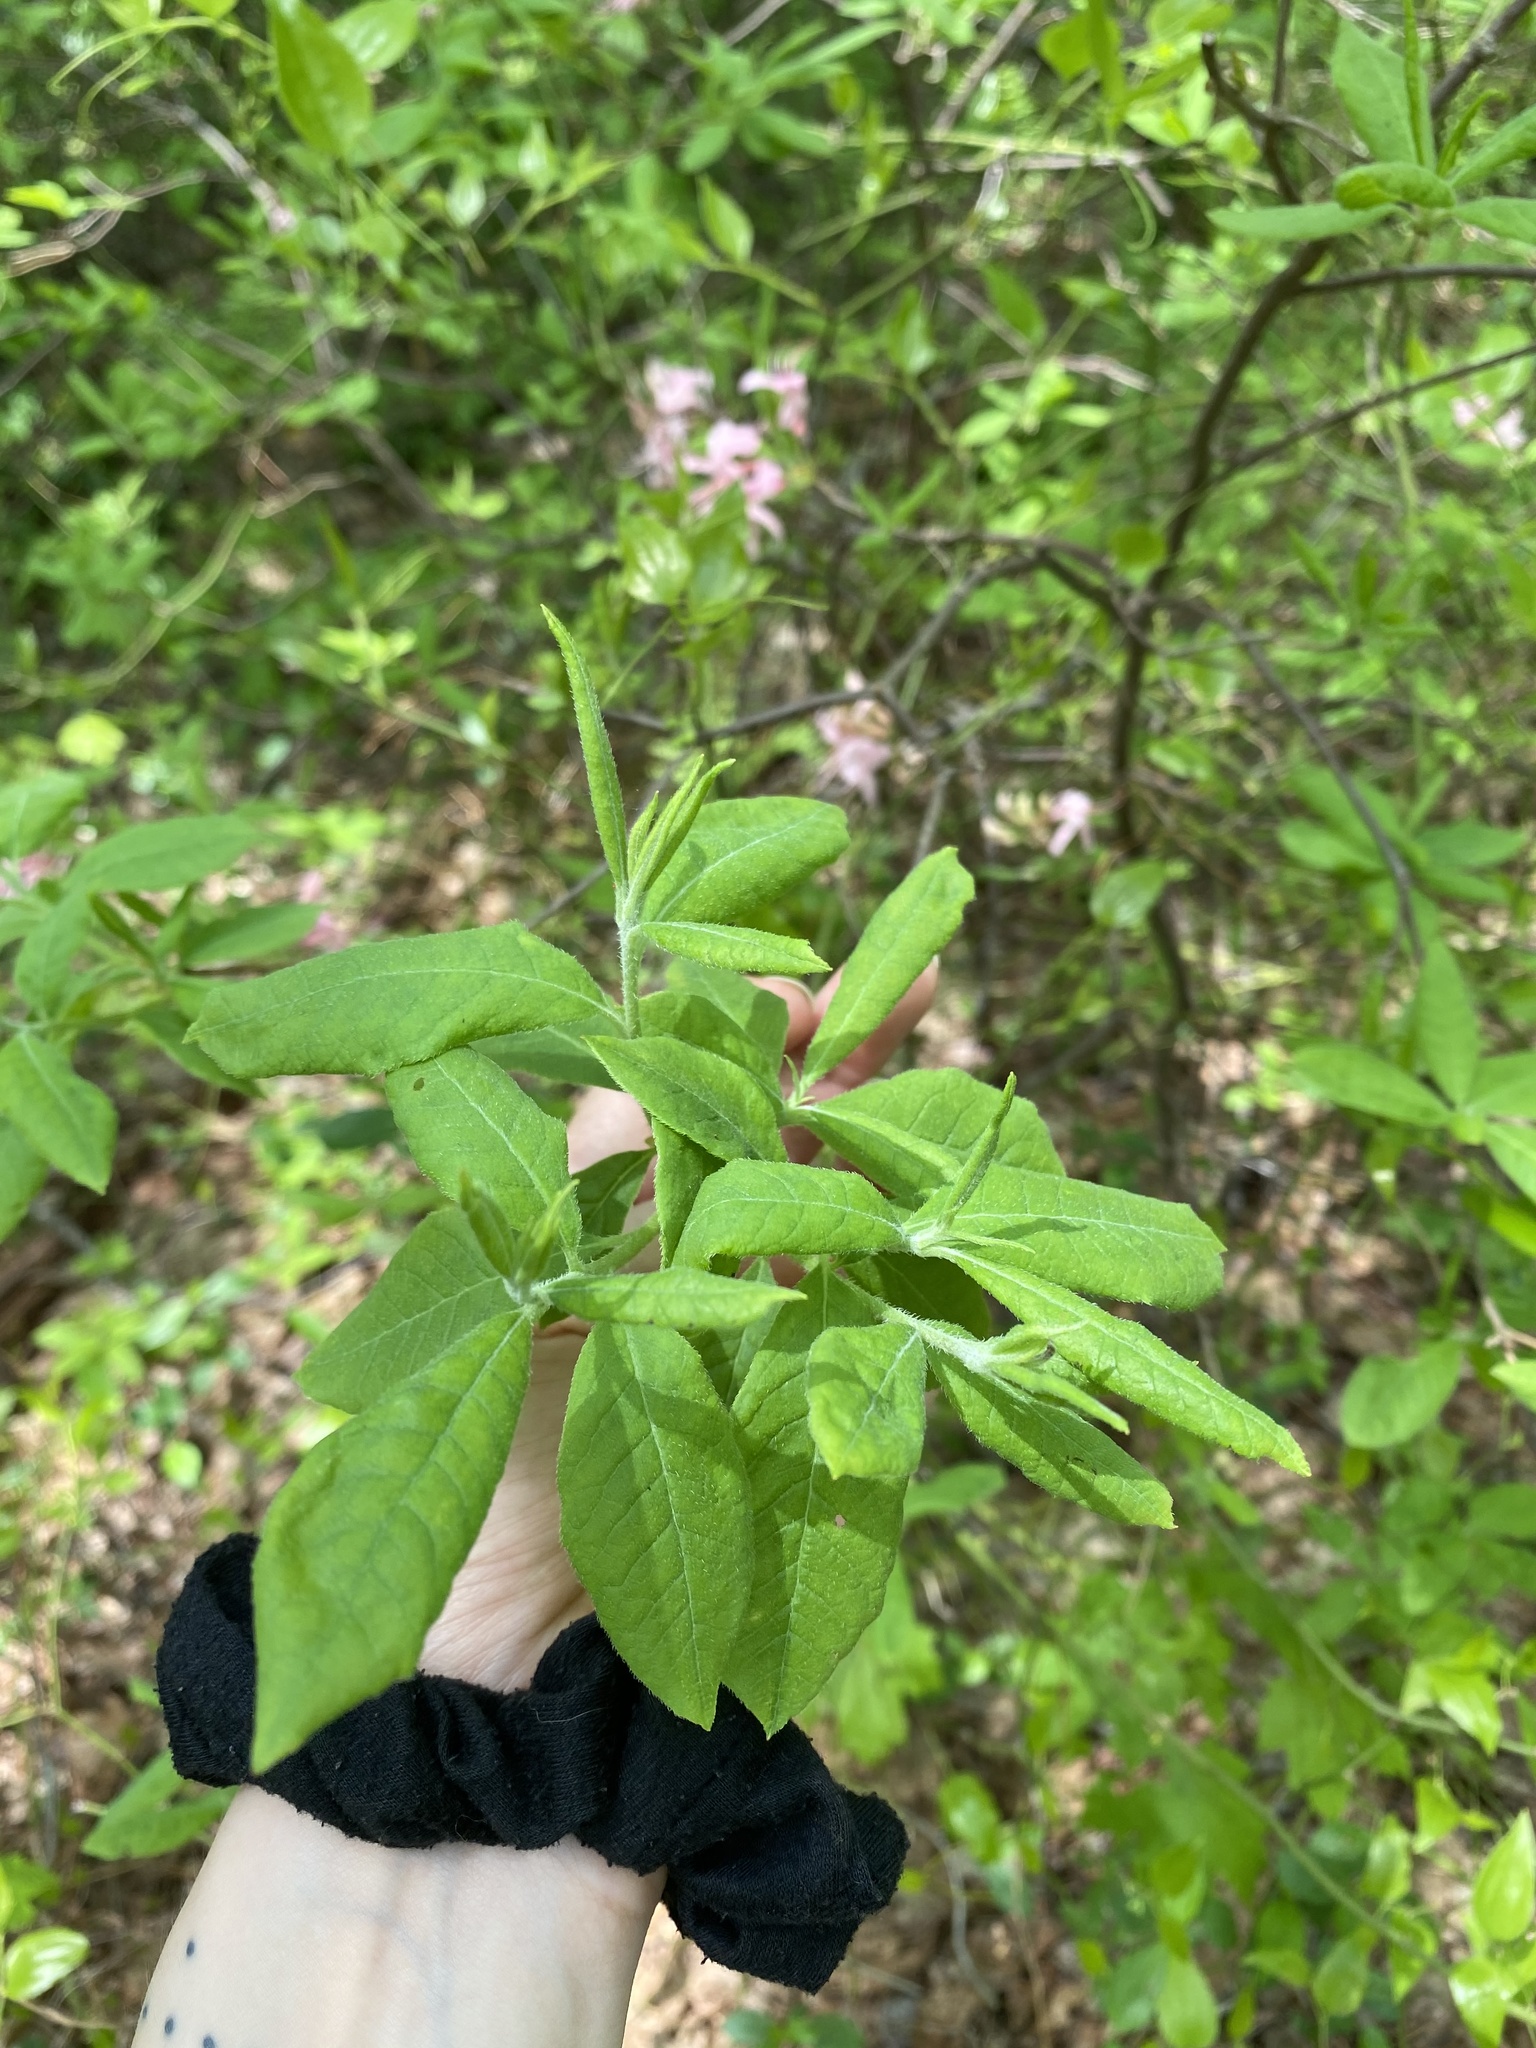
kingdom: Plantae
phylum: Tracheophyta
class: Magnoliopsida
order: Ericales
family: Ericaceae
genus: Rhododendron
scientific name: Rhododendron periclymenoides
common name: Election-pink
